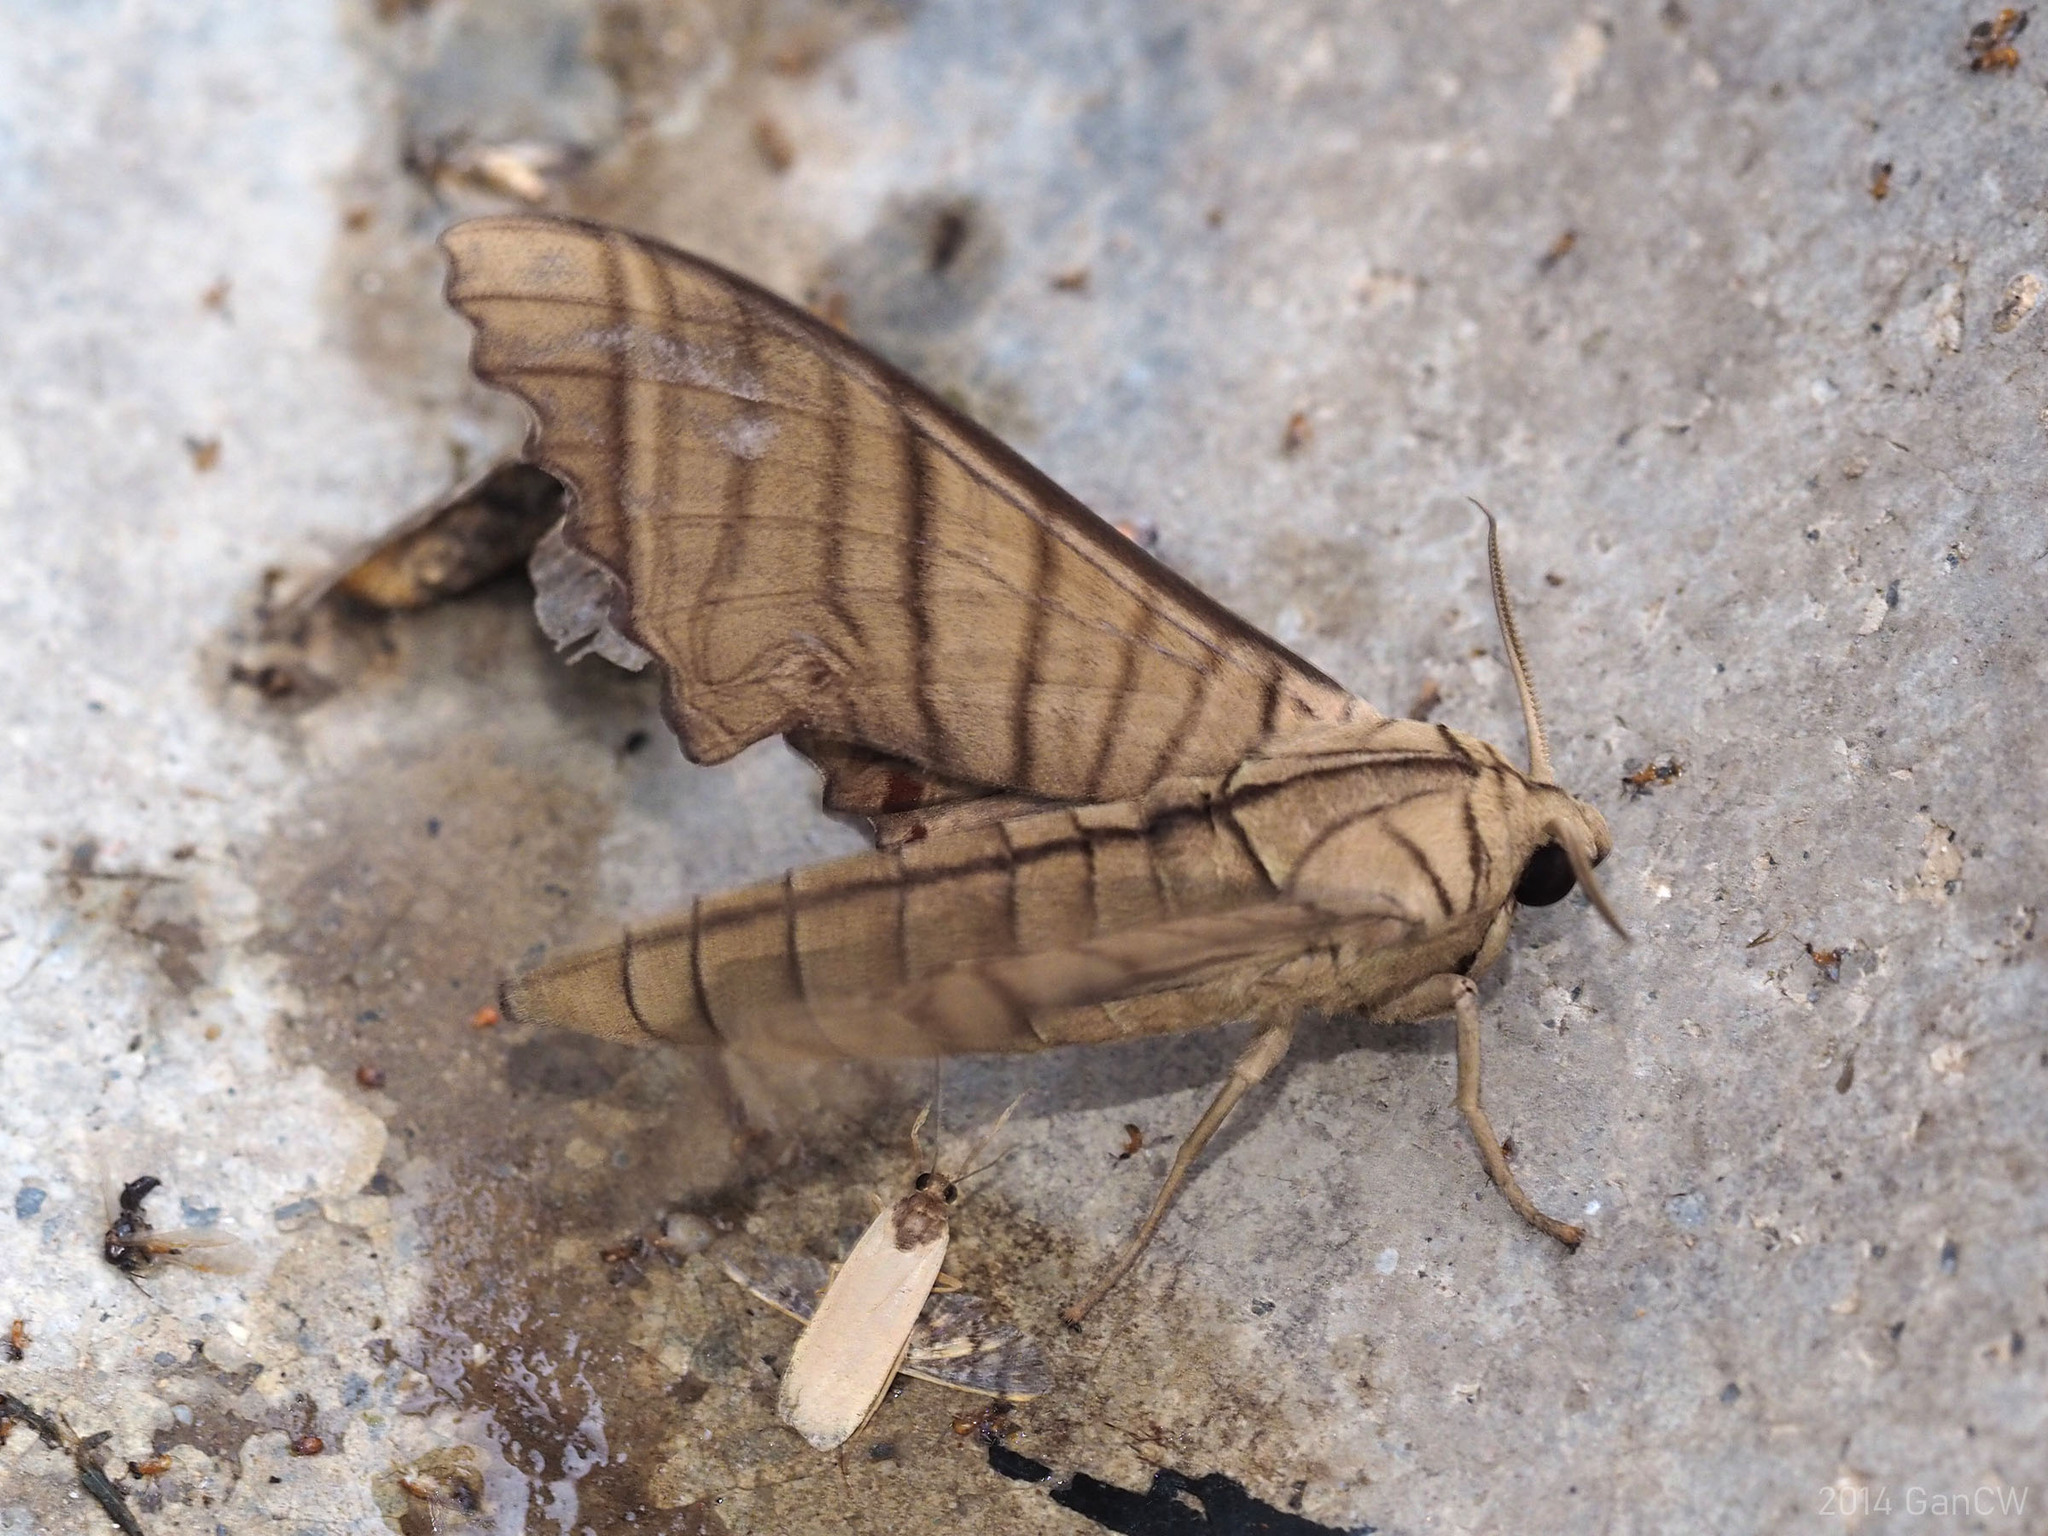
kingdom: Animalia
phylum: Arthropoda
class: Insecta
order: Lepidoptera
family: Sphingidae
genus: Marumba
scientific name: Marumba tigrina
